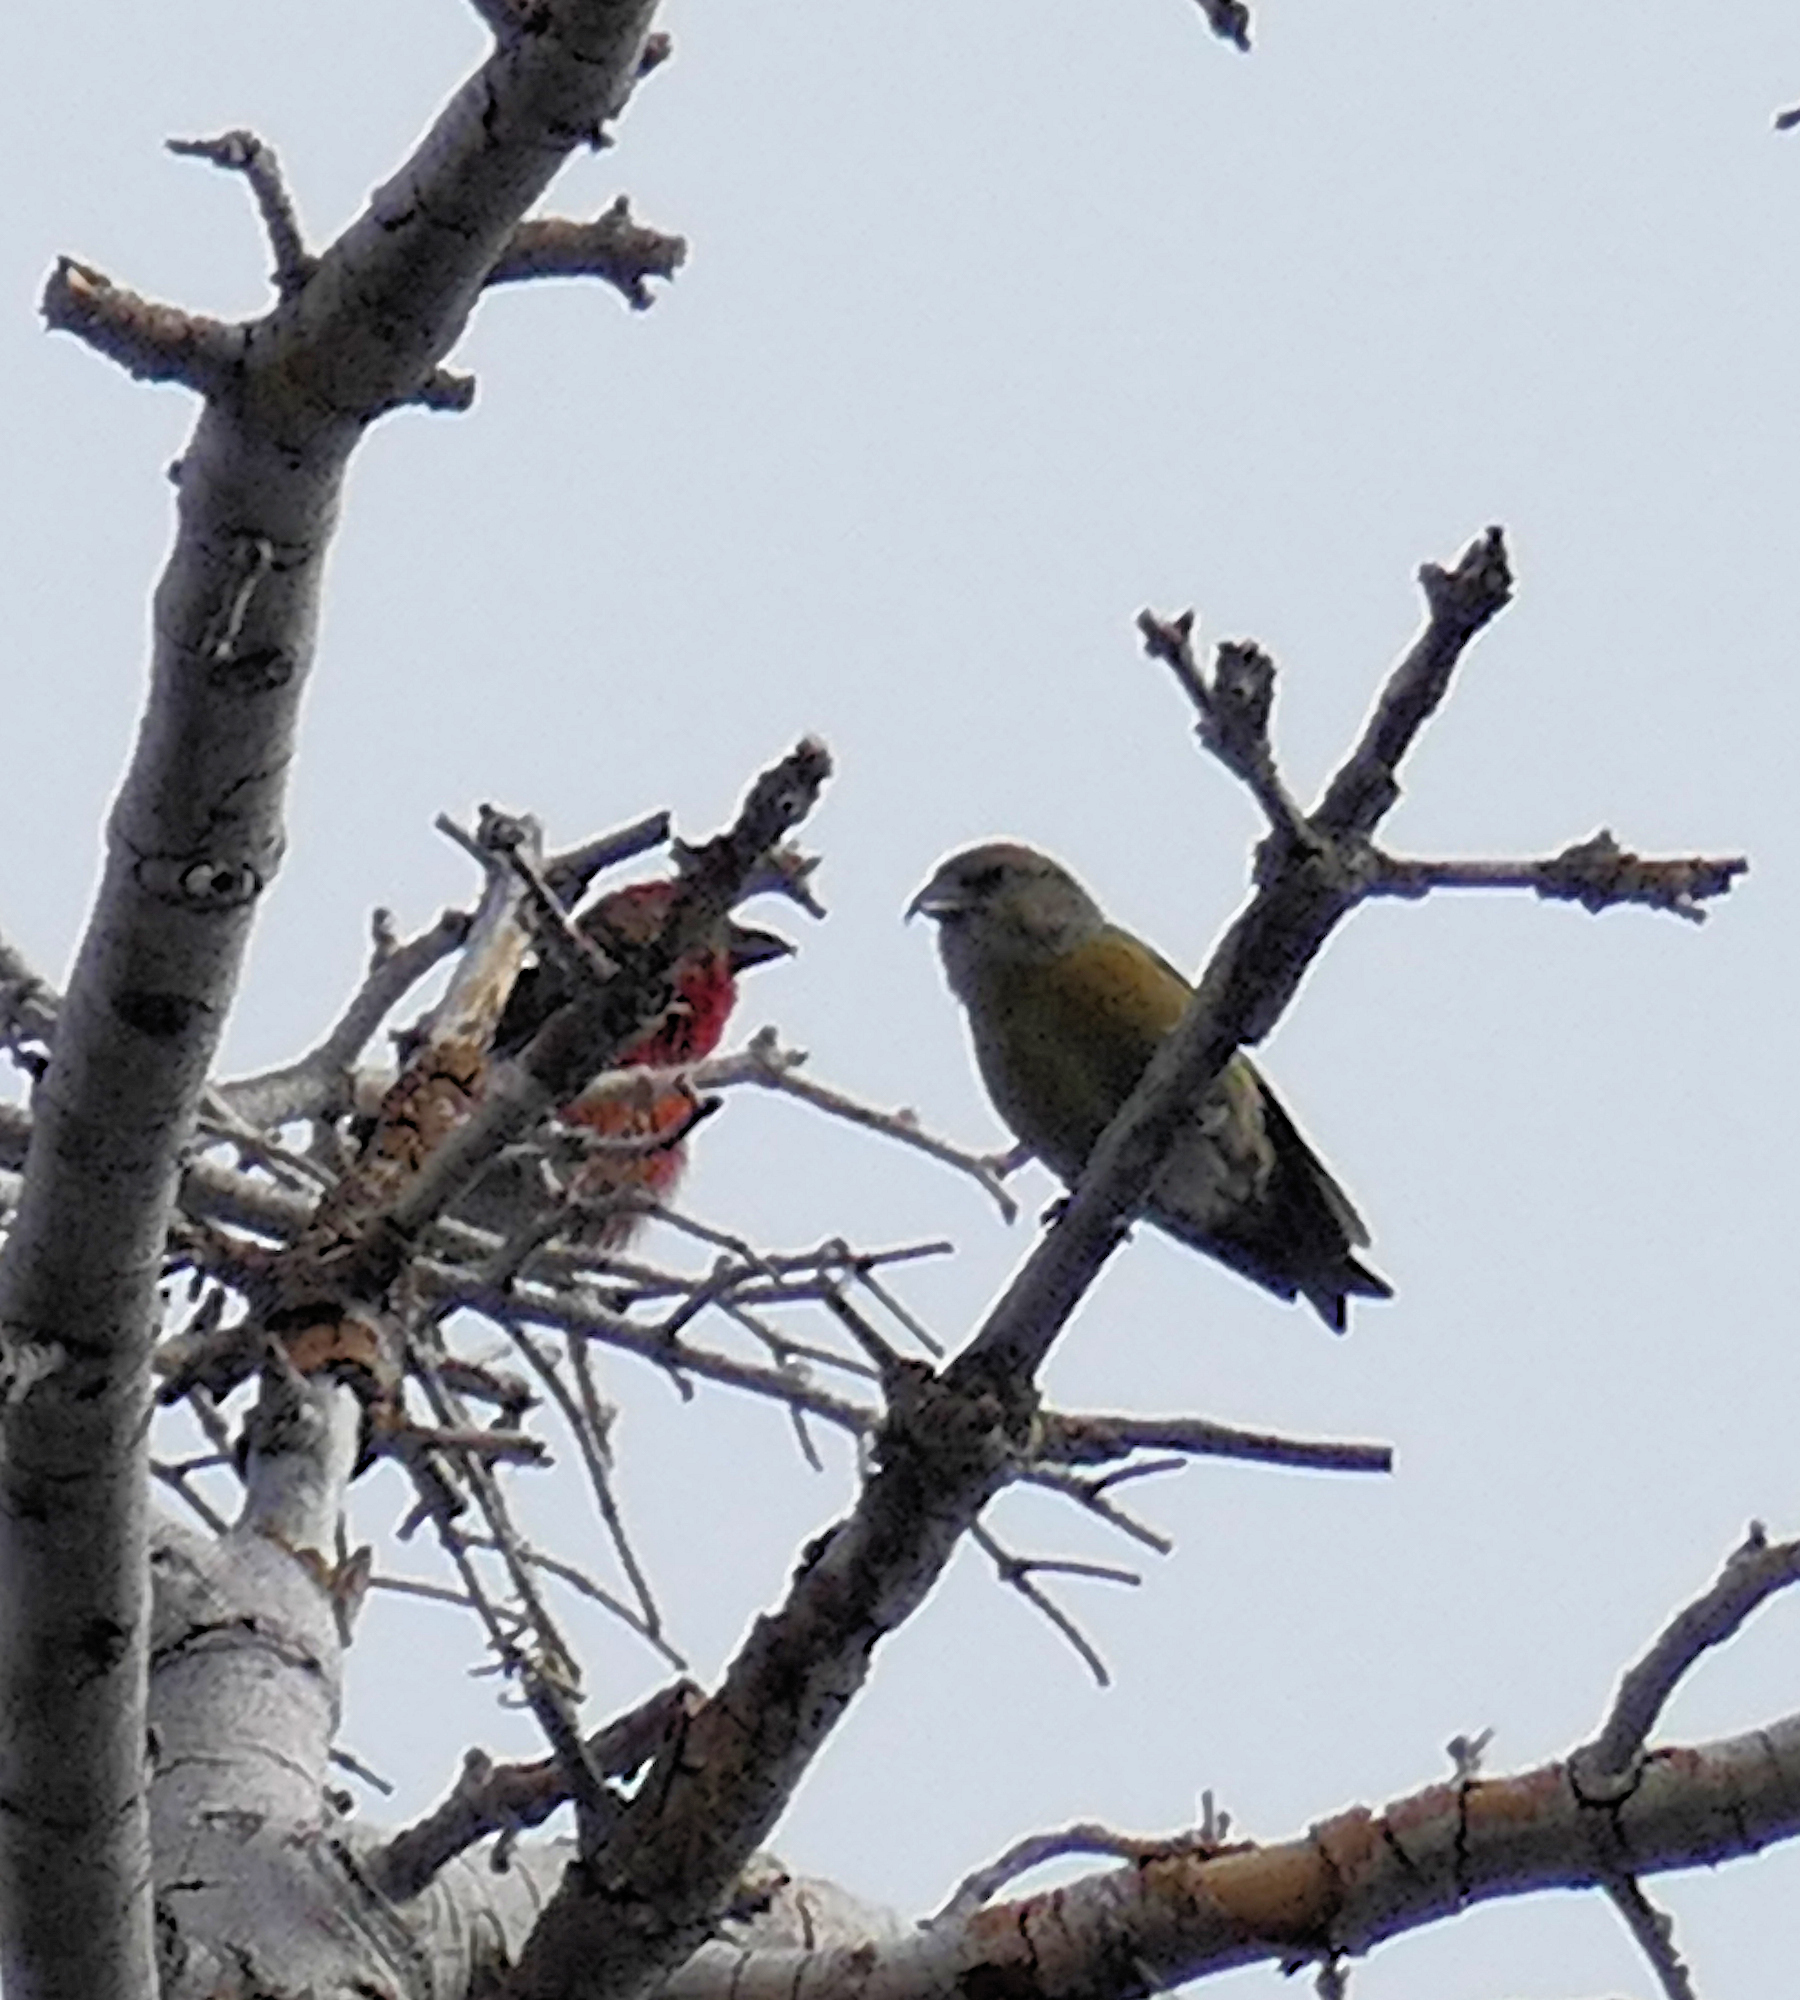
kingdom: Animalia
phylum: Chordata
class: Aves
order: Passeriformes
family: Fringillidae
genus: Loxia
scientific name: Loxia curvirostra
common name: Red crossbill
